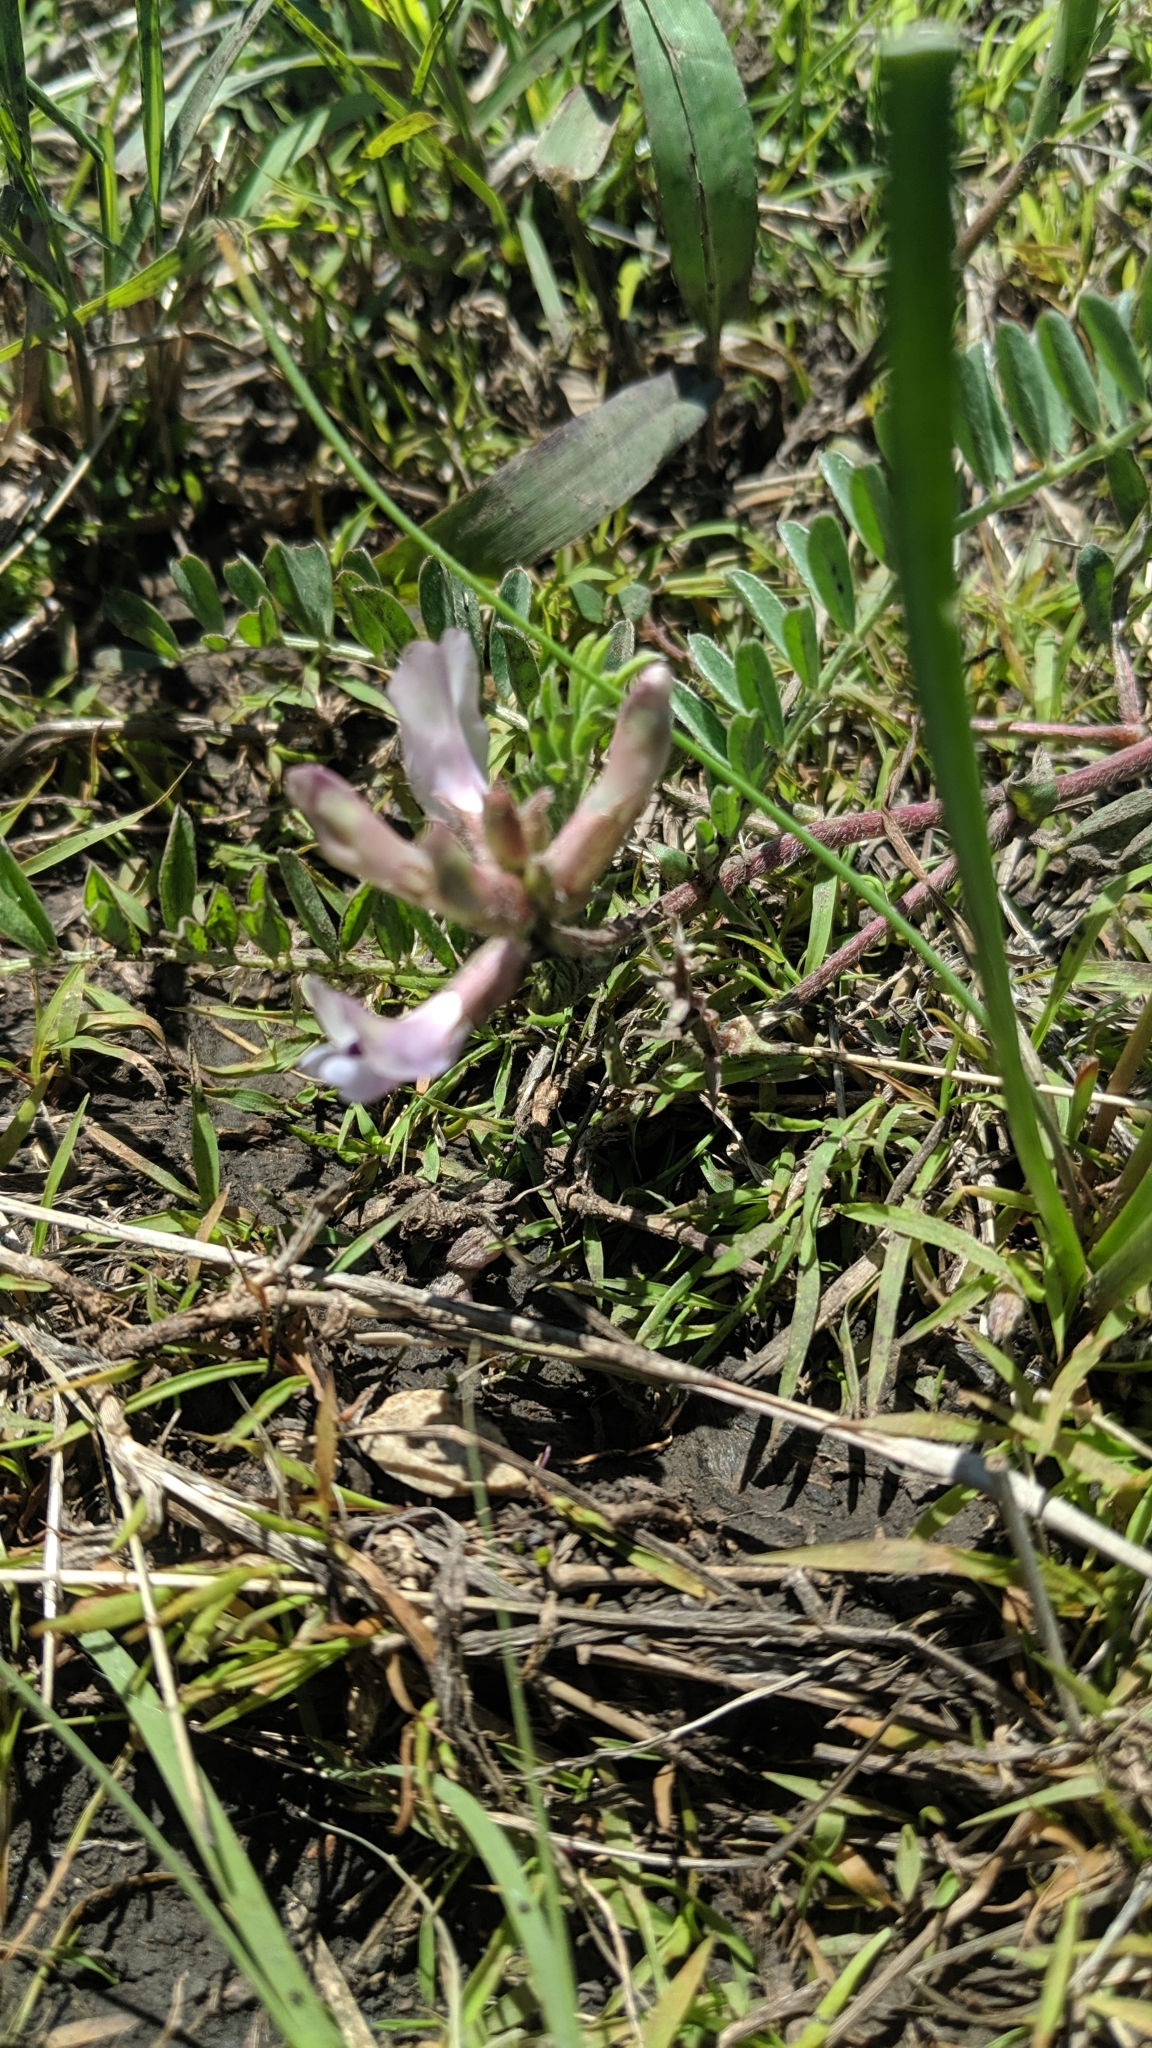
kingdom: Plantae
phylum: Tracheophyta
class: Magnoliopsida
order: Fabales
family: Fabaceae
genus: Astragalus
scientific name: Astragalus crassicarpus
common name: Ground-plum milk-vetch
